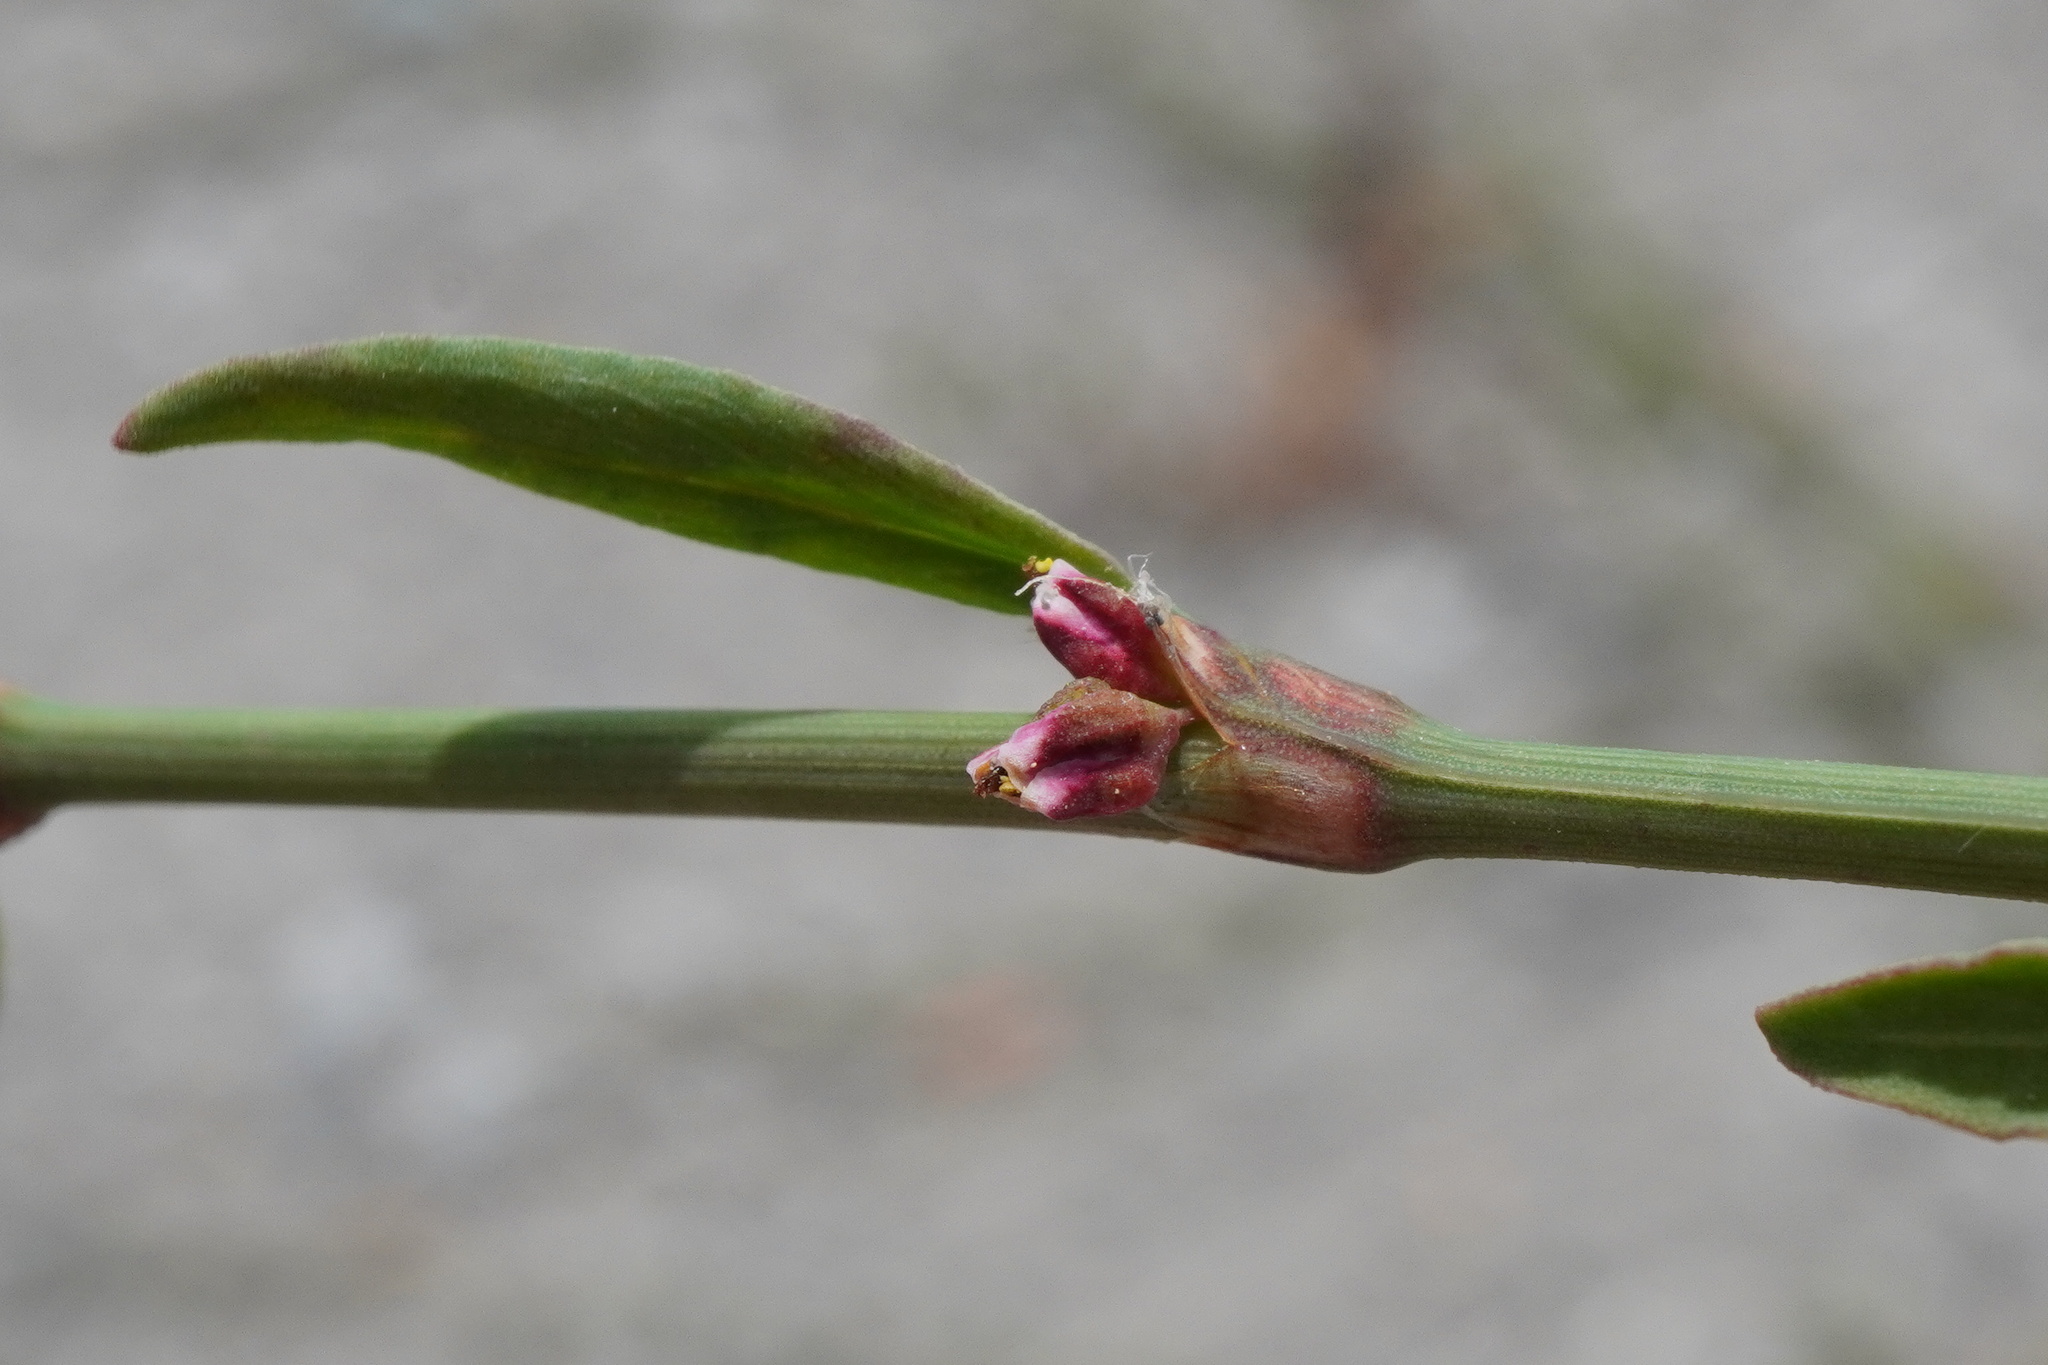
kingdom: Plantae
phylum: Tracheophyta
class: Magnoliopsida
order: Caryophyllales
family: Polygonaceae
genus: Polygonum
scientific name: Polygonum arenastrum
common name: Equal-leaved knotgrass
